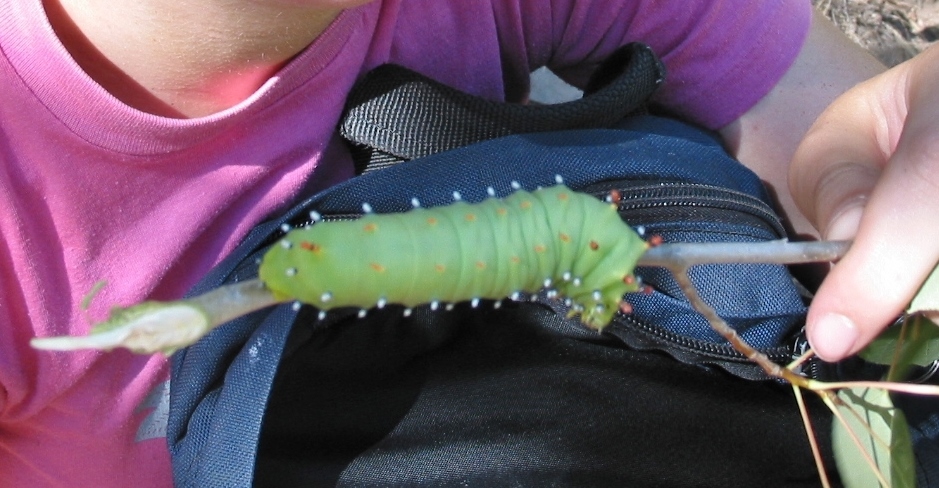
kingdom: Animalia
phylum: Arthropoda
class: Insecta
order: Lepidoptera
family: Saturniidae
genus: Hyalophora
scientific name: Hyalophora euryalus
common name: Ceanothus silkmoth
